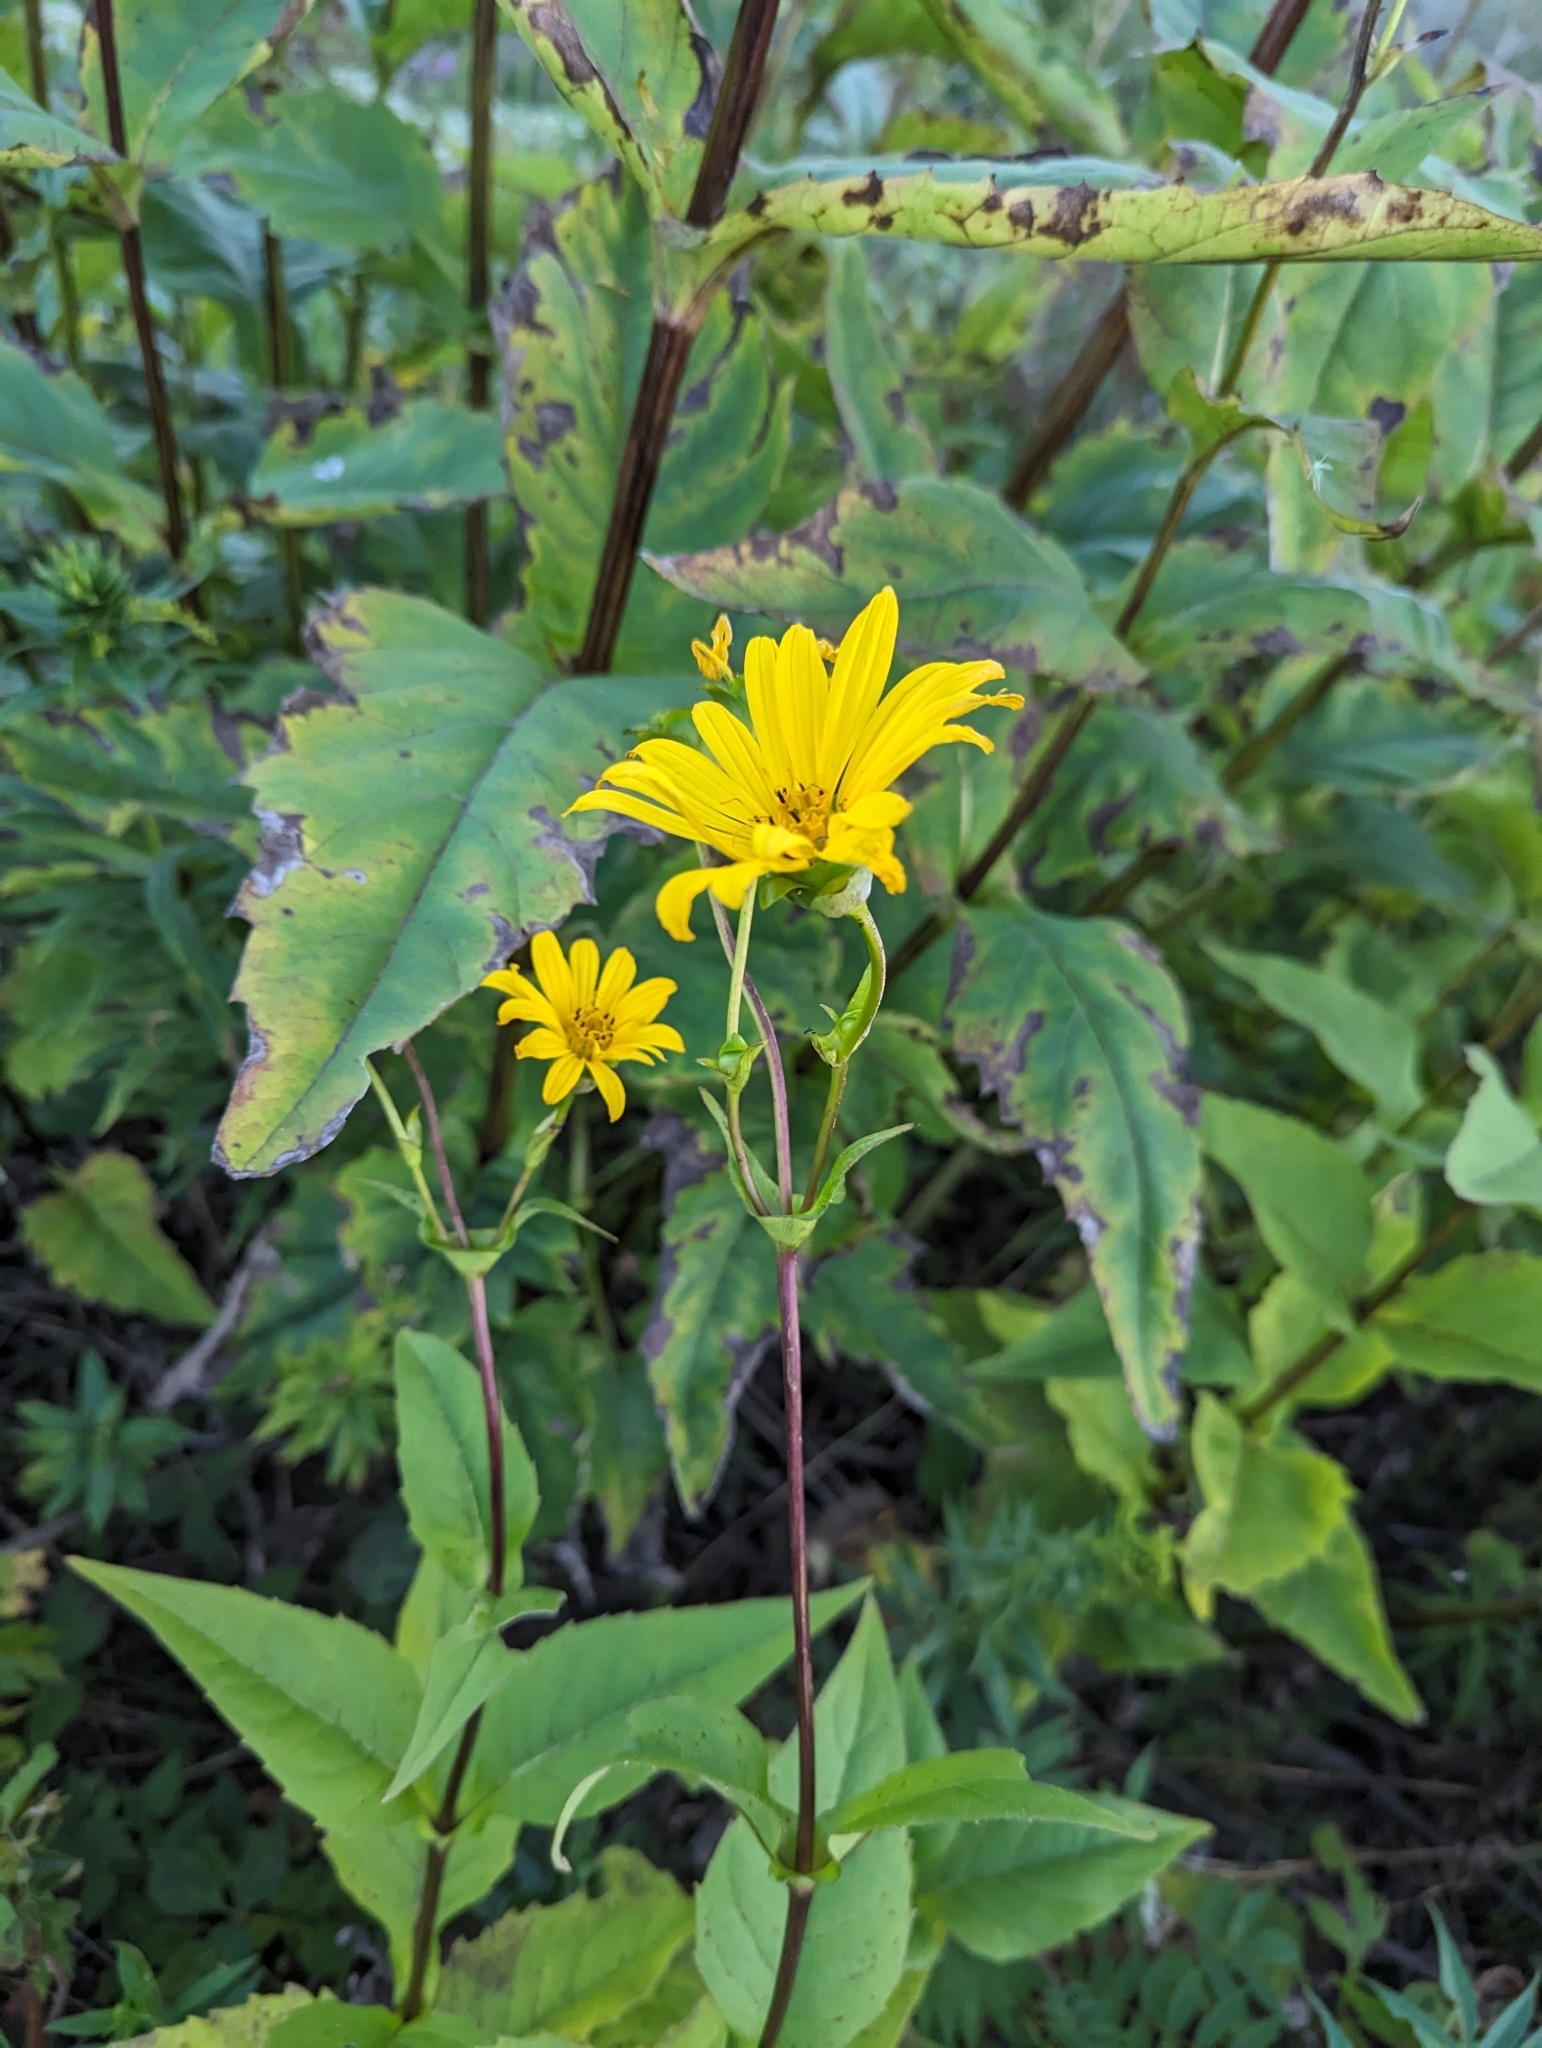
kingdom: Plantae
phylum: Tracheophyta
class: Magnoliopsida
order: Asterales
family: Asteraceae
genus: Silphium
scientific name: Silphium perfoliatum
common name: Cup-plant
